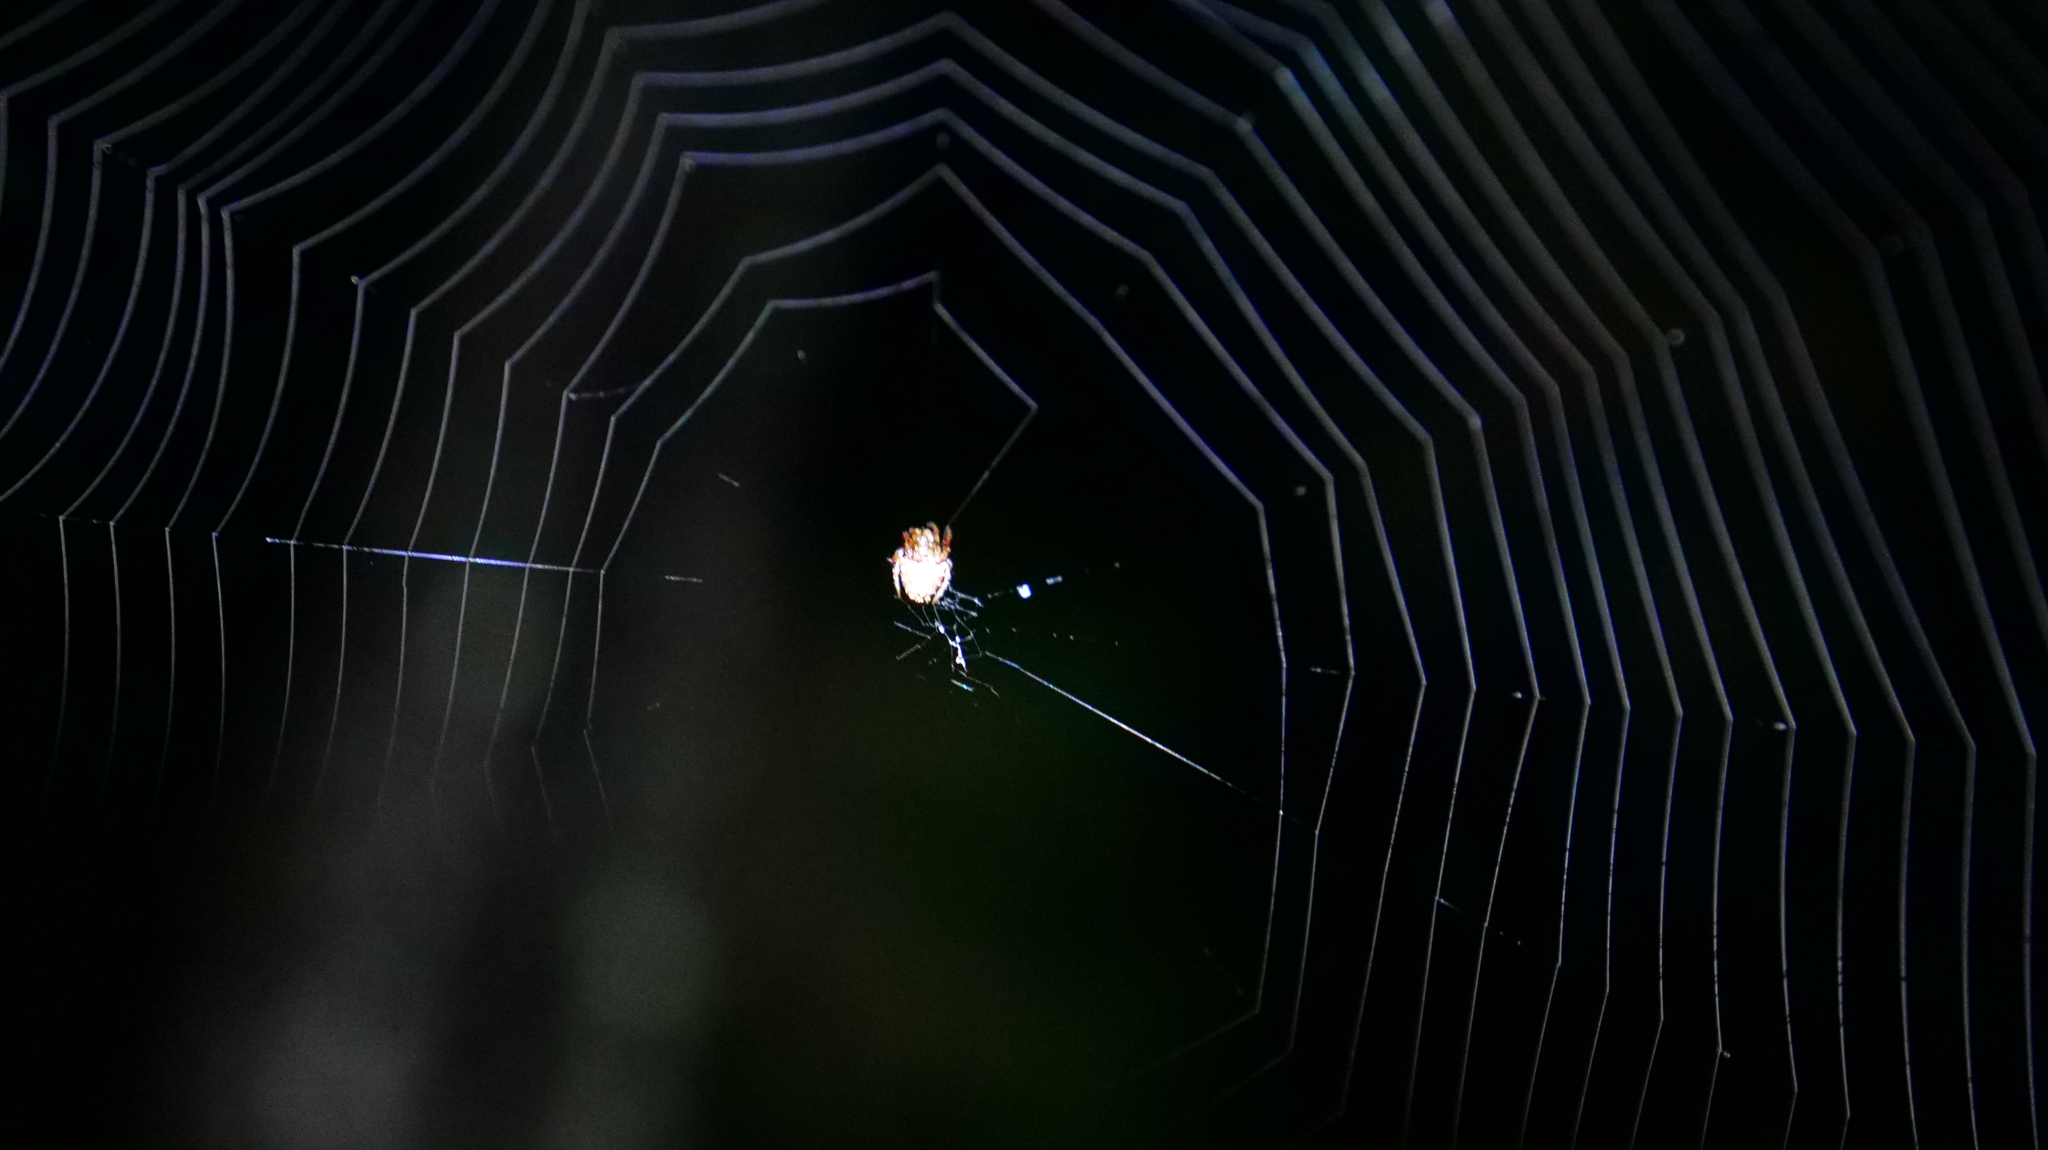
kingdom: Animalia
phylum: Arthropoda
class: Arachnida
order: Araneae
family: Araneidae
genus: Neoscona
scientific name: Neoscona domiciliorum
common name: Red-femured spotted orbweaver
